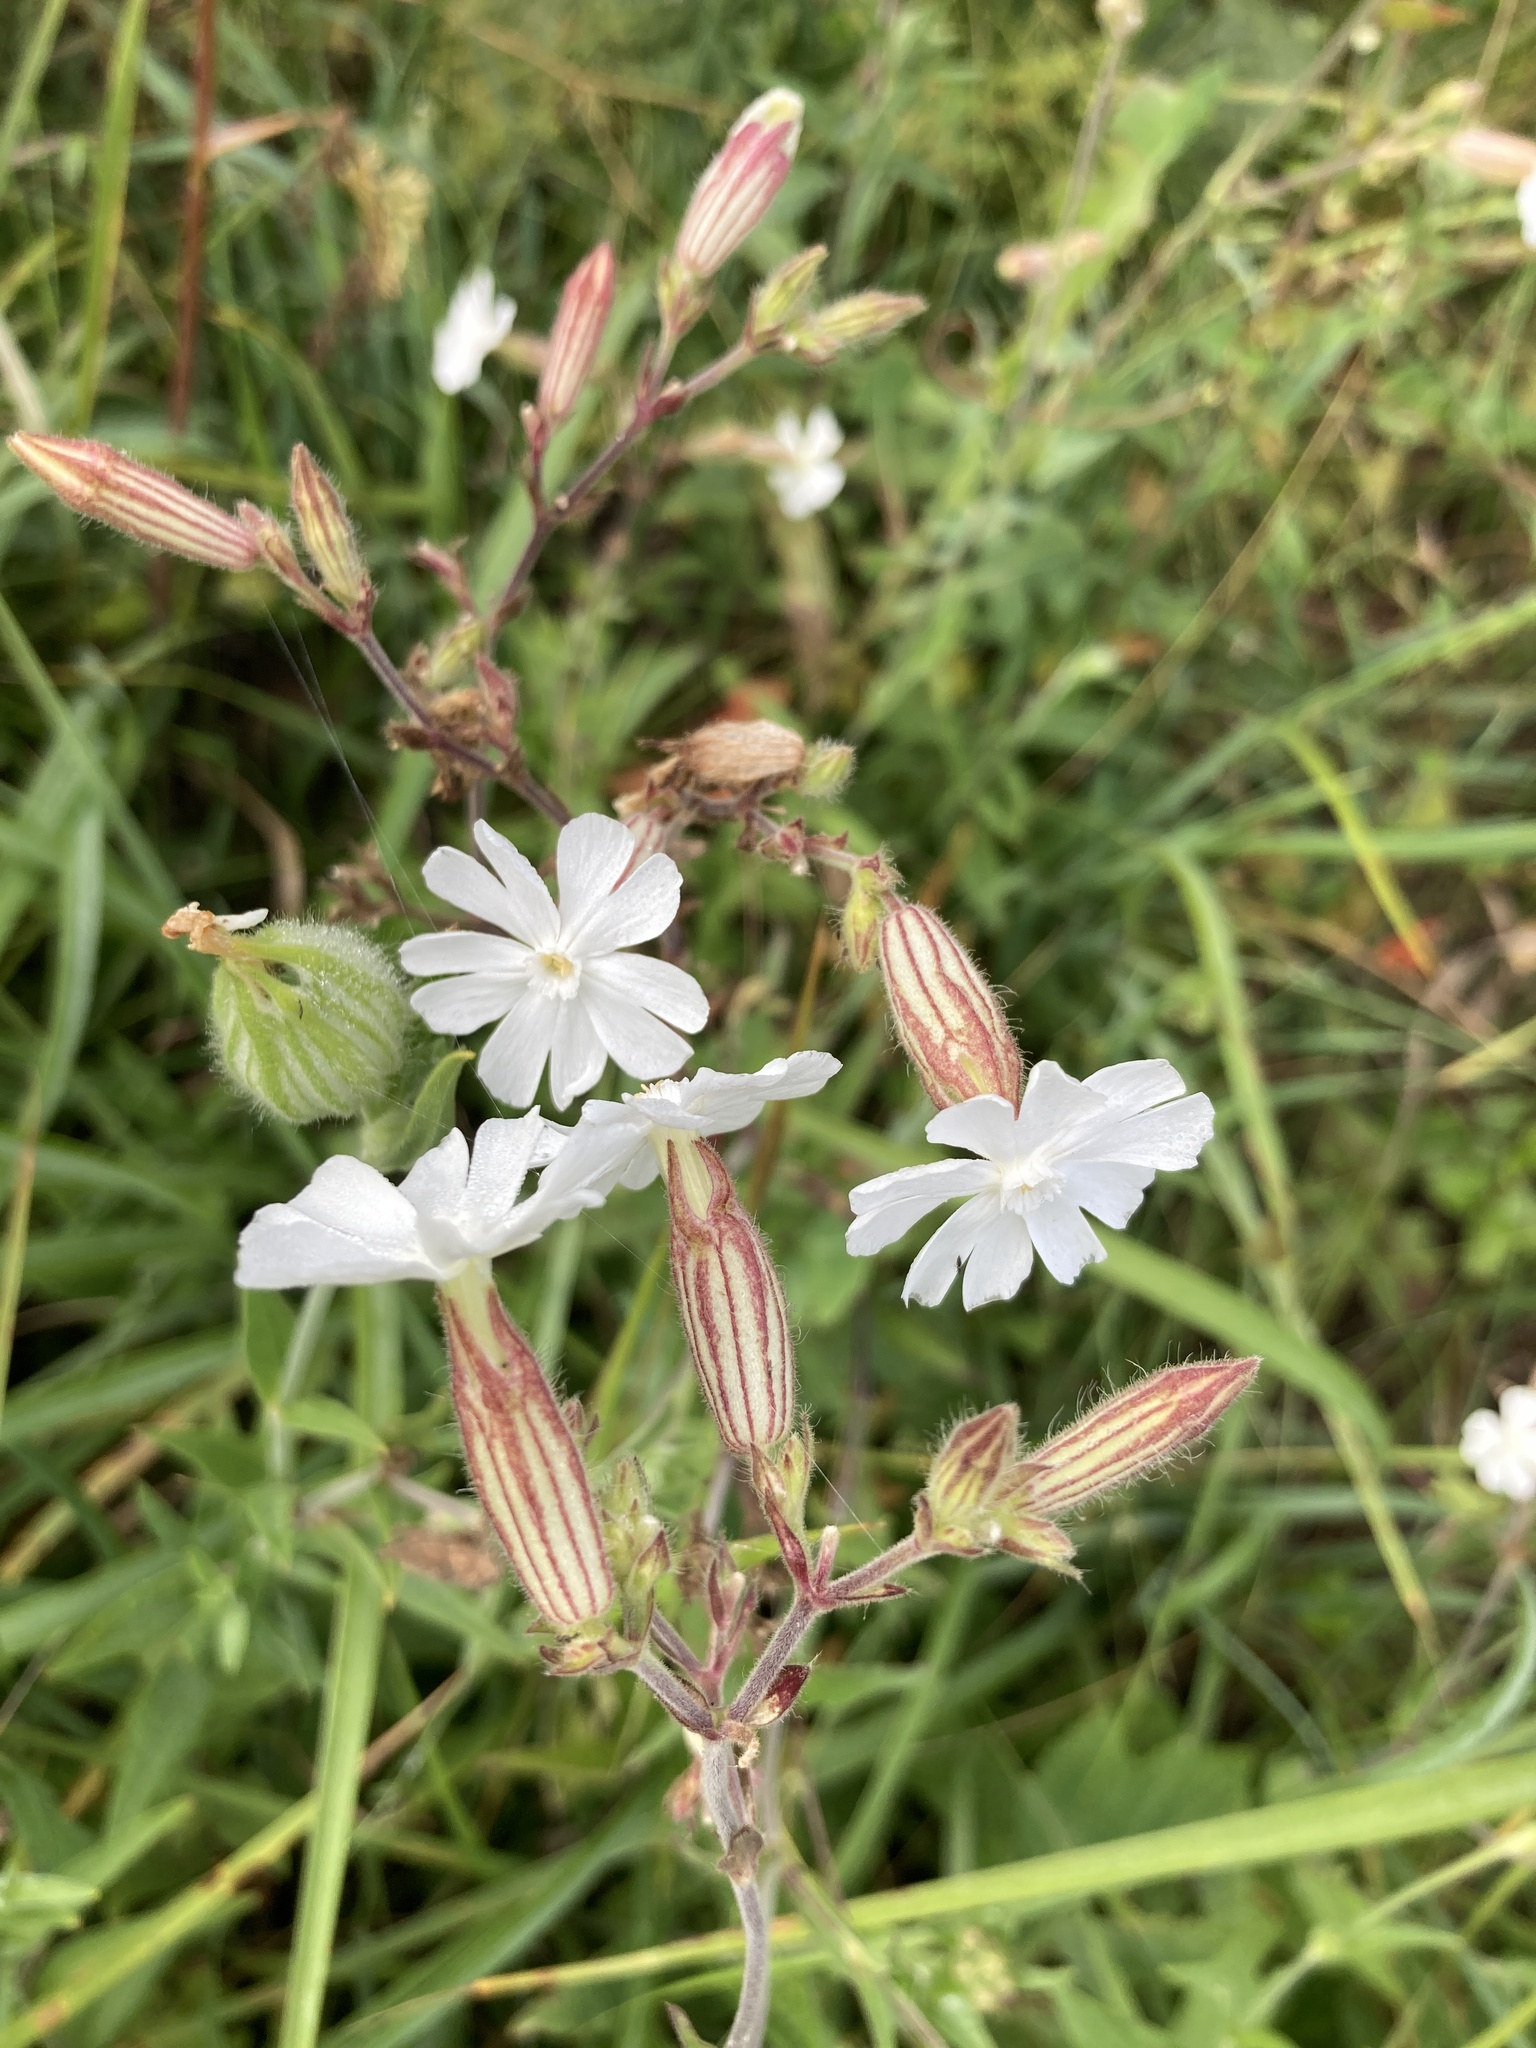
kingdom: Plantae
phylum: Tracheophyta
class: Magnoliopsida
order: Caryophyllales
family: Caryophyllaceae
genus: Silene
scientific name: Silene latifolia
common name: White campion
